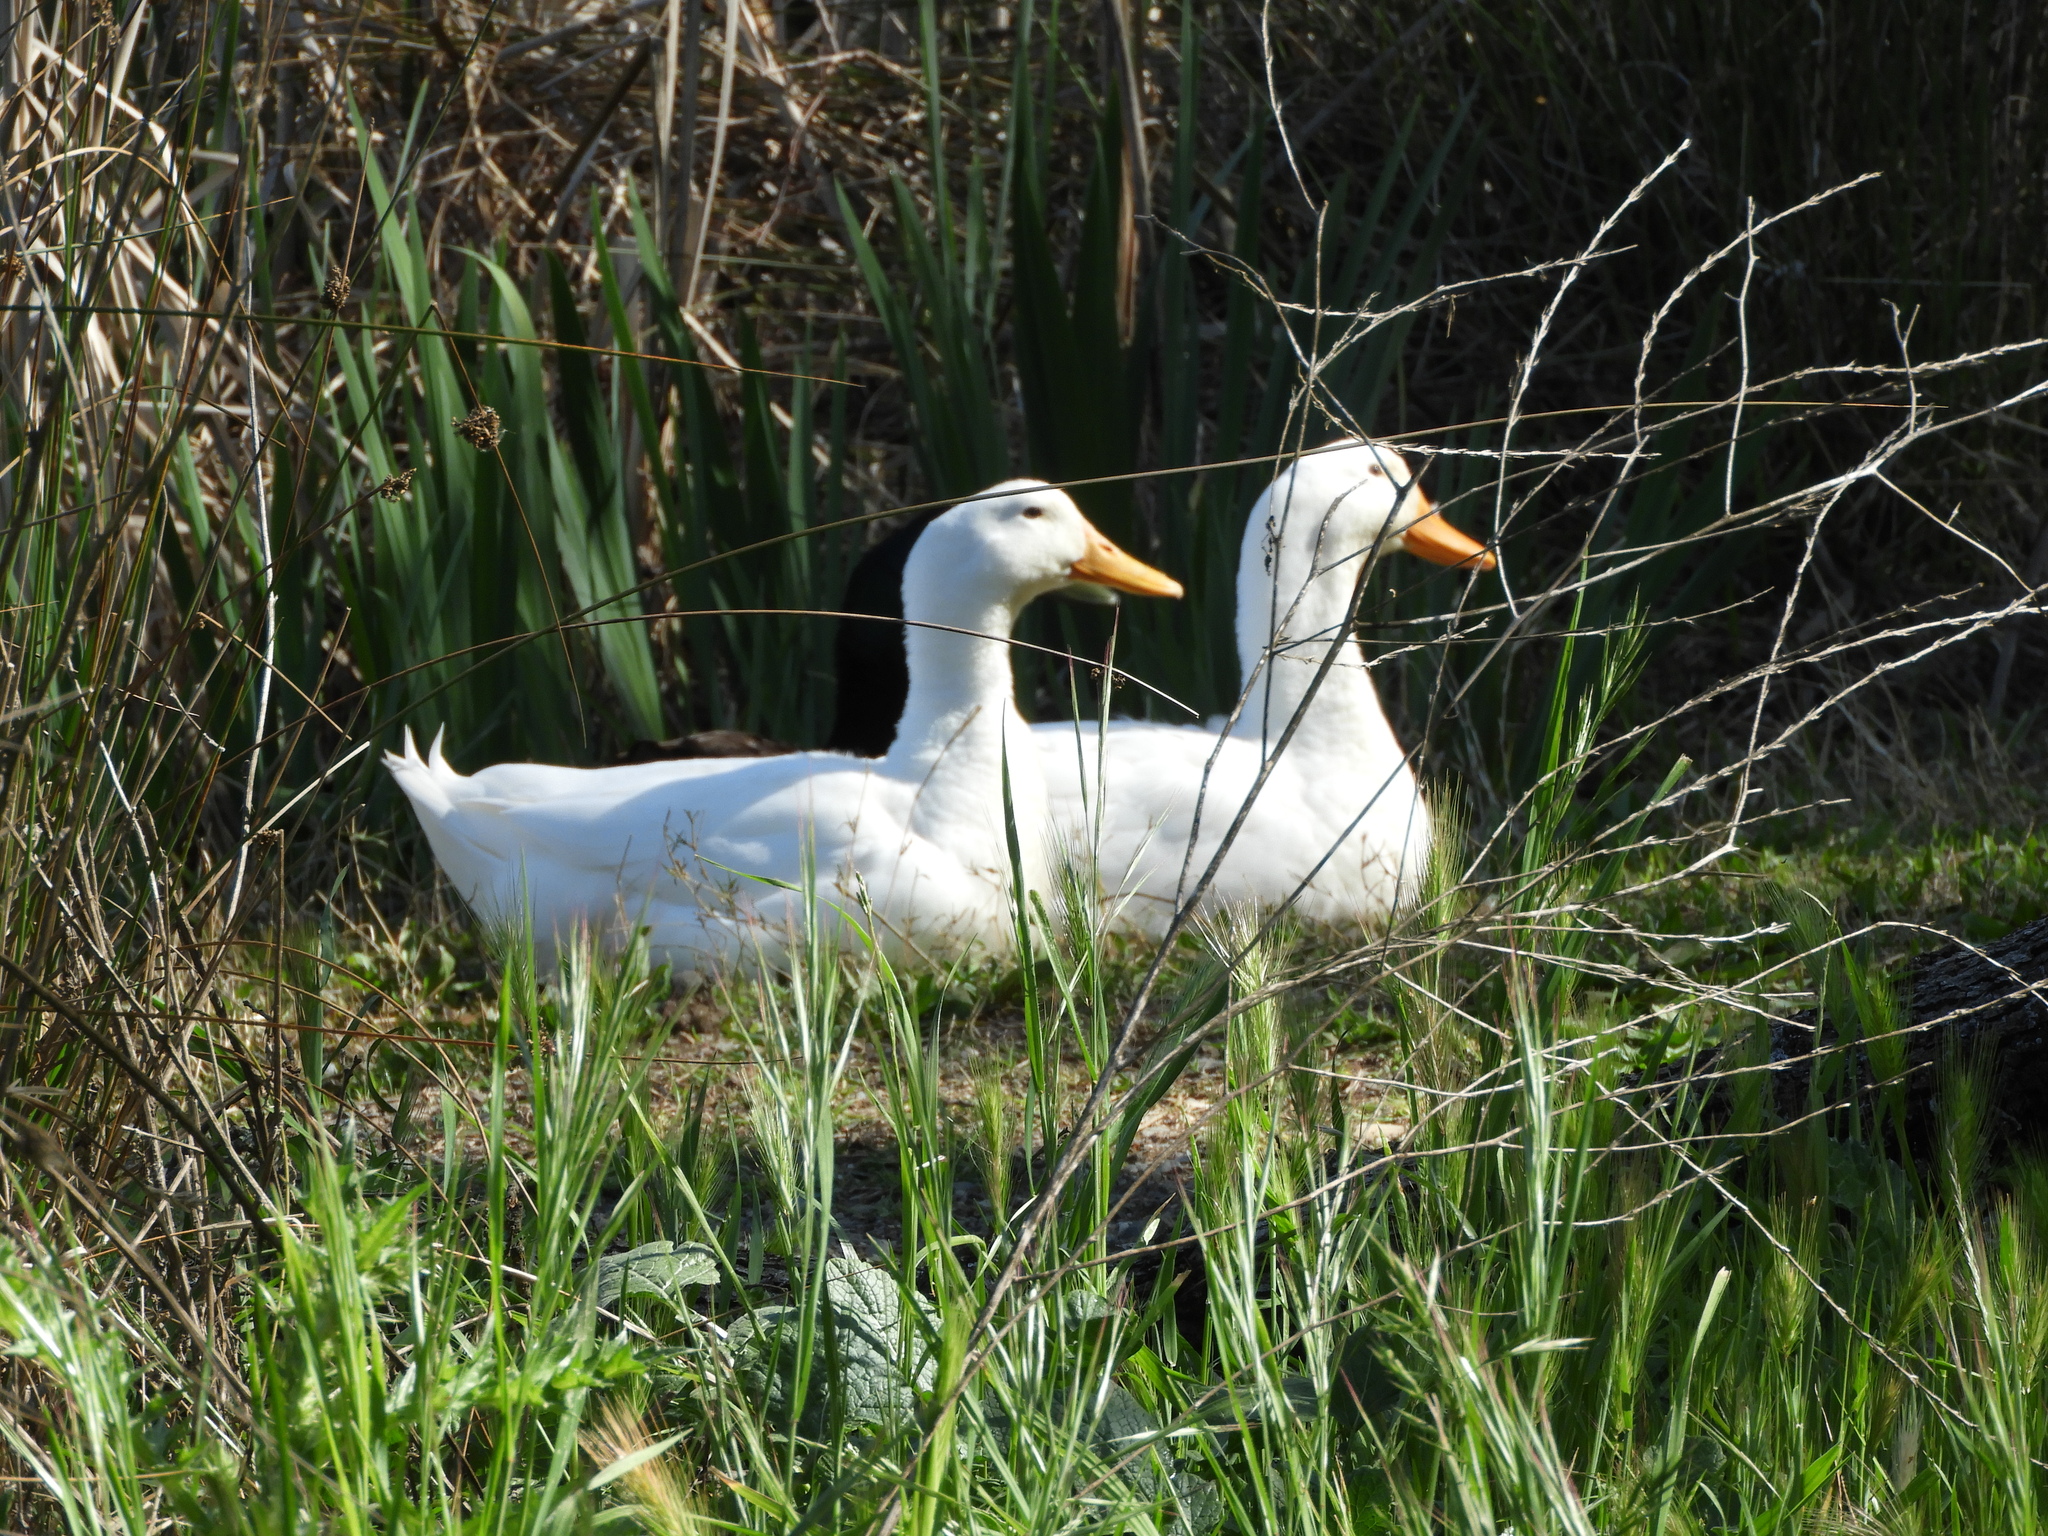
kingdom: Animalia
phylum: Chordata
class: Aves
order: Anseriformes
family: Anatidae
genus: Anas
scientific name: Anas platyrhynchos
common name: Mallard
